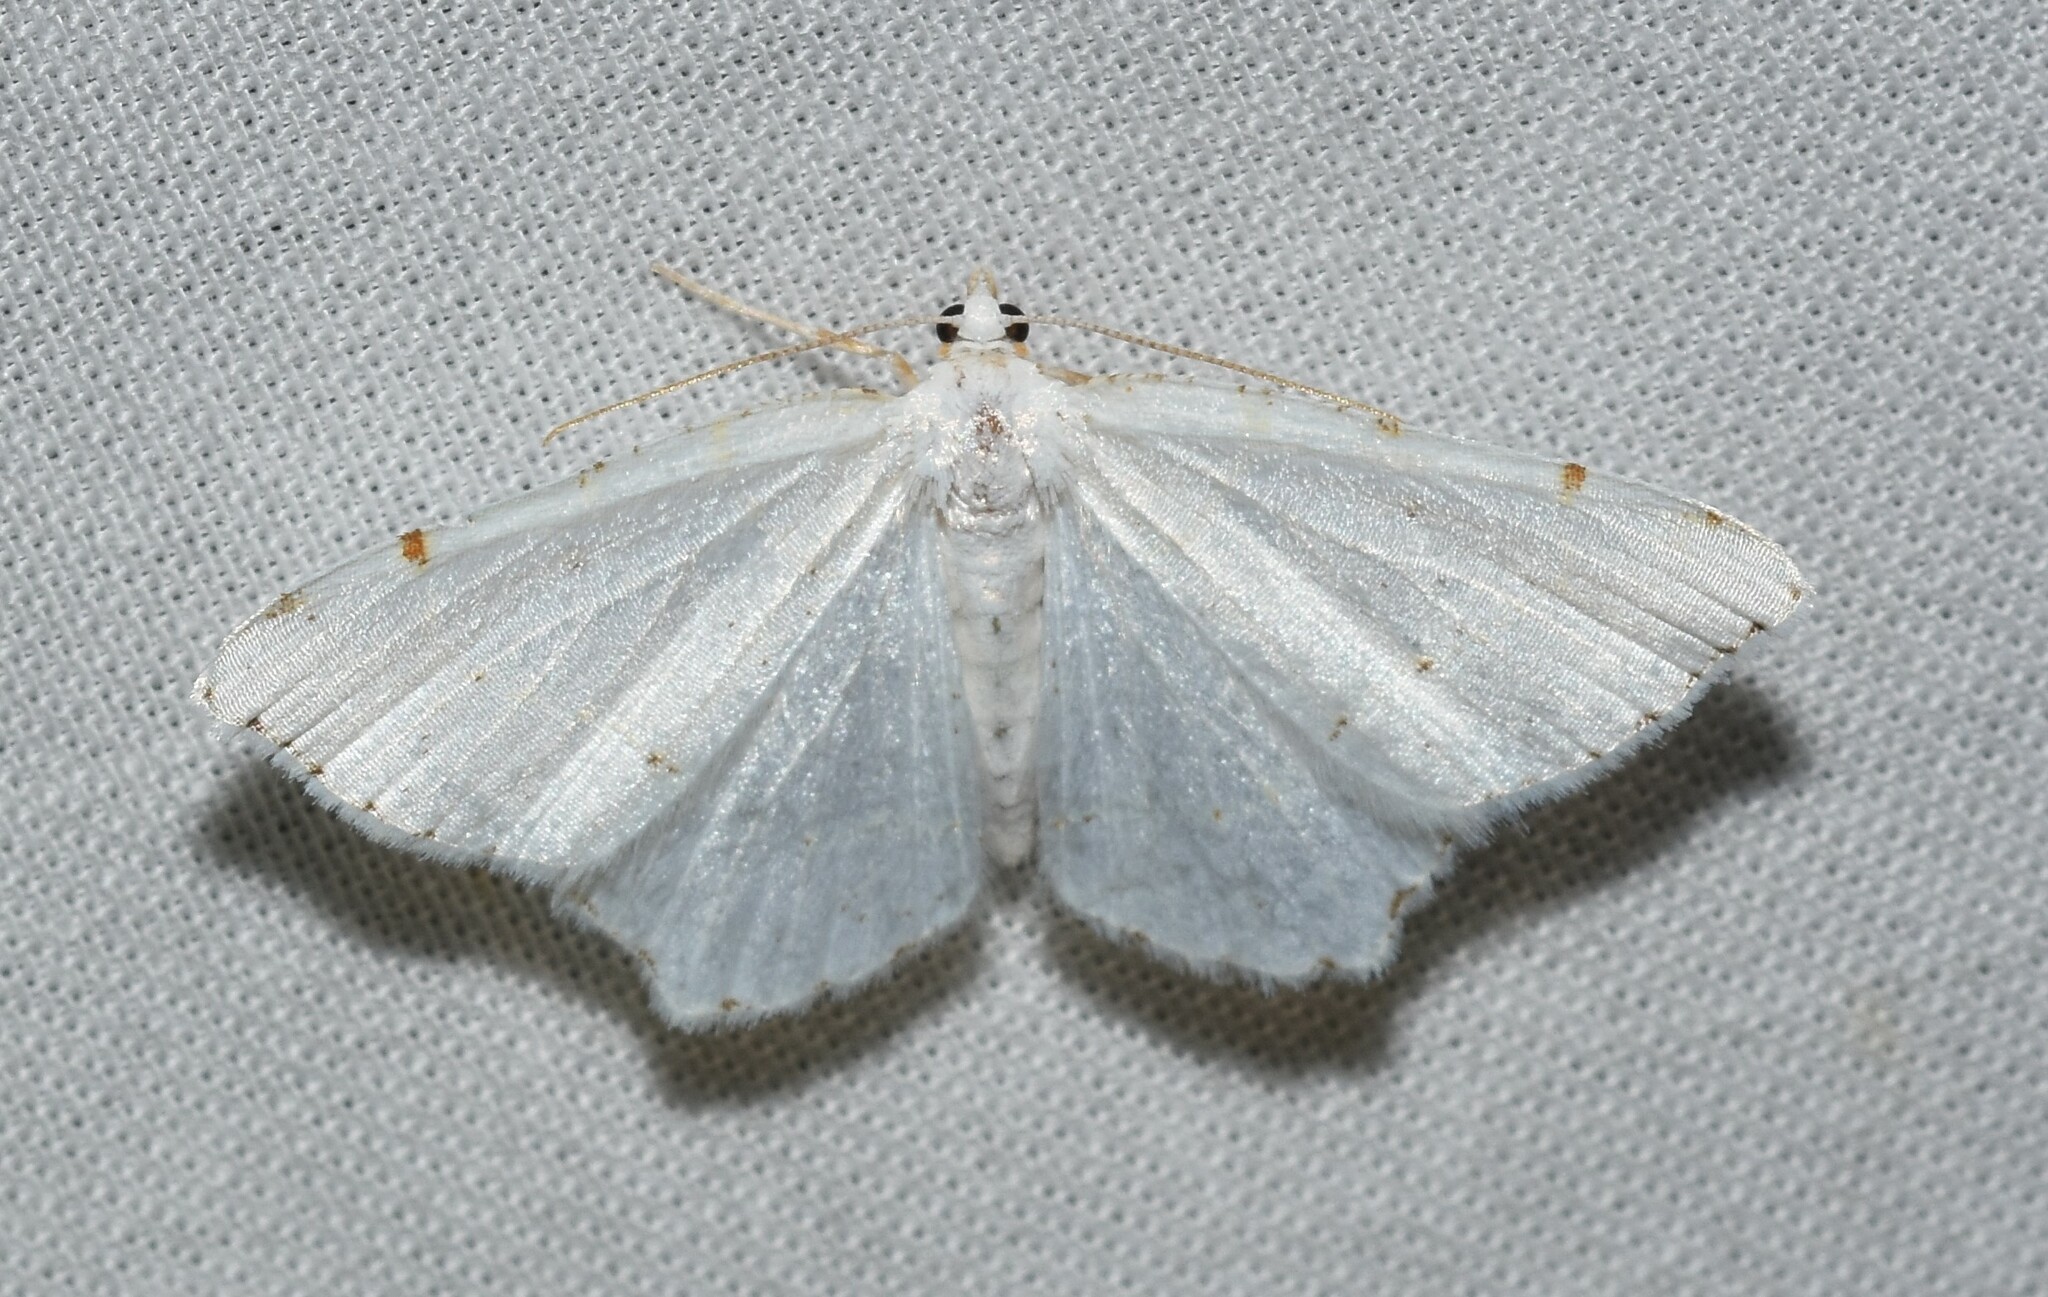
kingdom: Animalia
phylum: Arthropoda
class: Insecta
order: Lepidoptera
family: Geometridae
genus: Macaria
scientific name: Macaria pustularia
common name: Lesser maple spanworm moth
